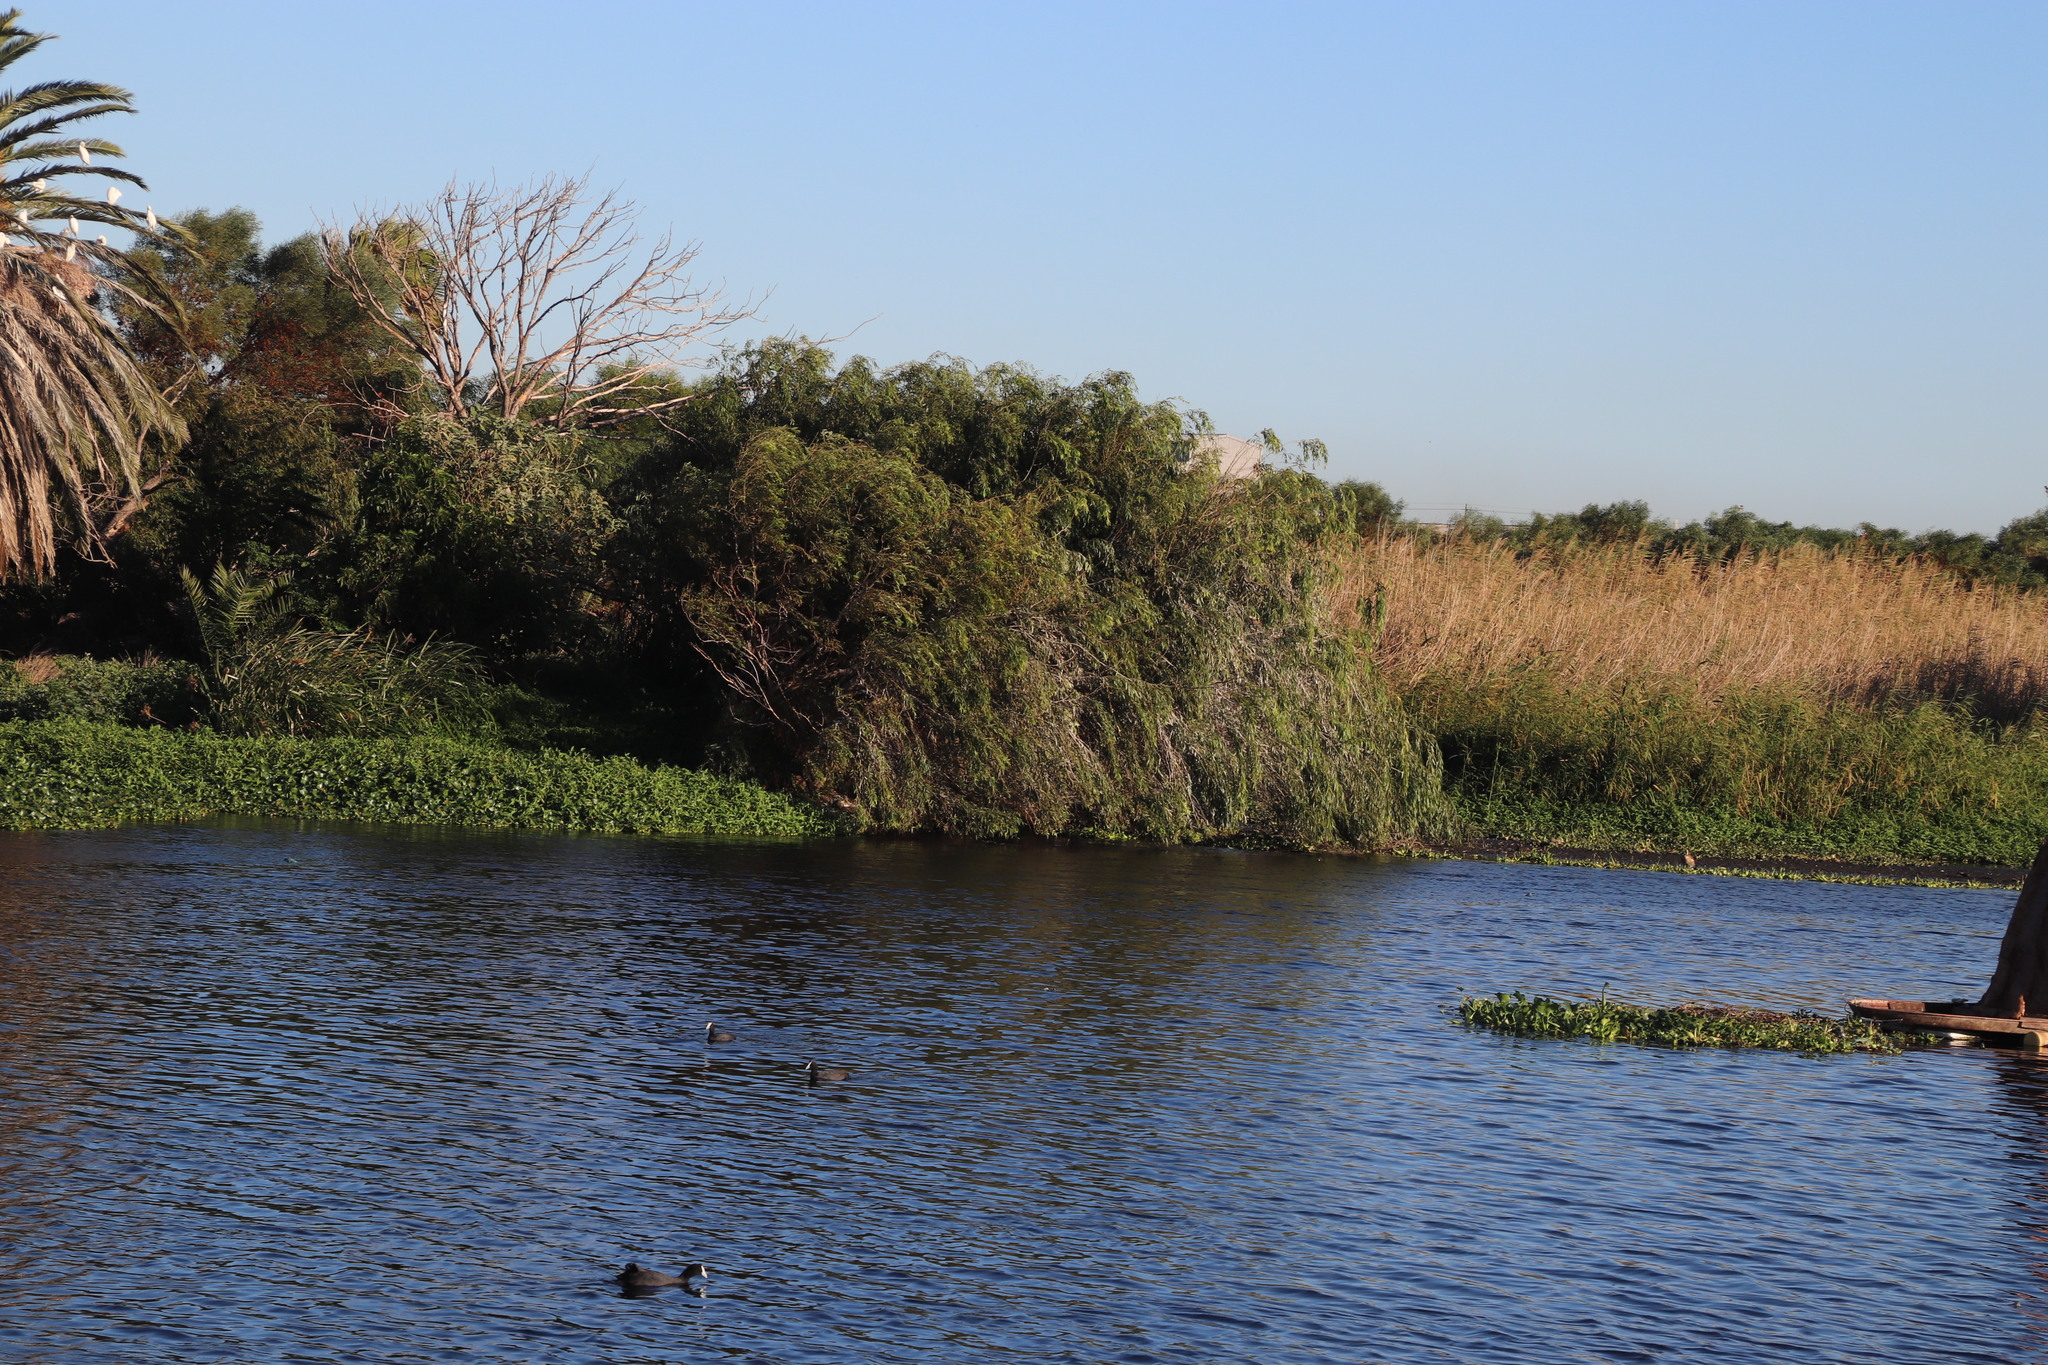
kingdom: Plantae
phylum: Tracheophyta
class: Magnoliopsida
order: Malpighiales
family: Salicaceae
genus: Salix
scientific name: Salix babylonica
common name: Weeping willow
